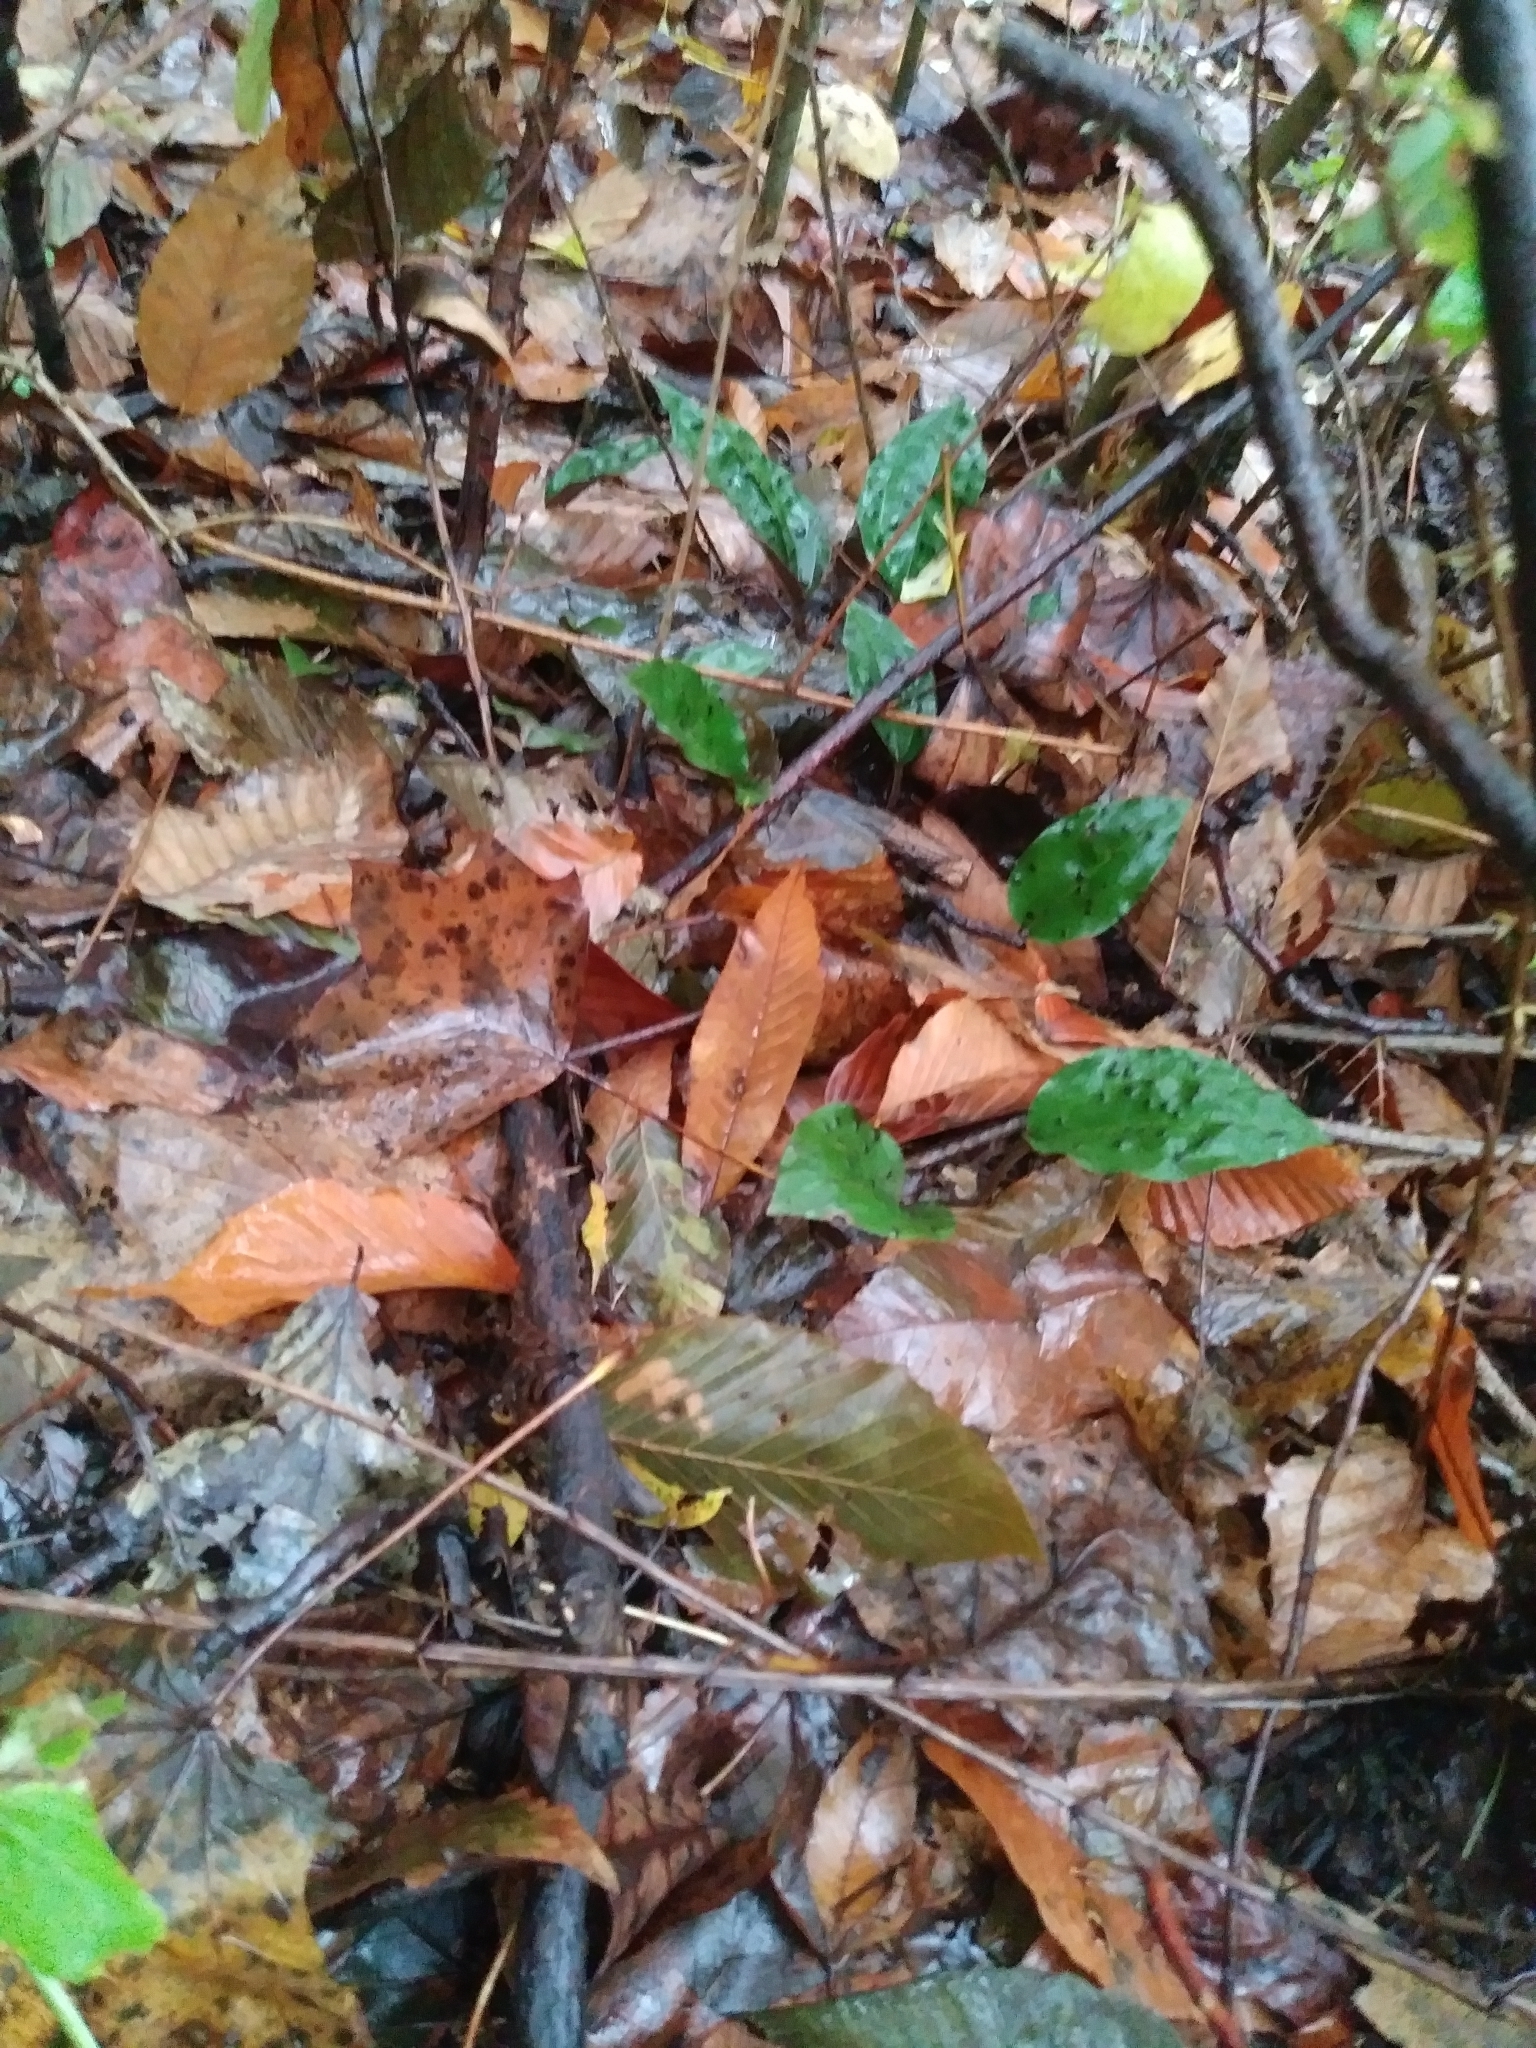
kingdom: Plantae
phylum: Tracheophyta
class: Liliopsida
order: Asparagales
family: Orchidaceae
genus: Tipularia
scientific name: Tipularia discolor
